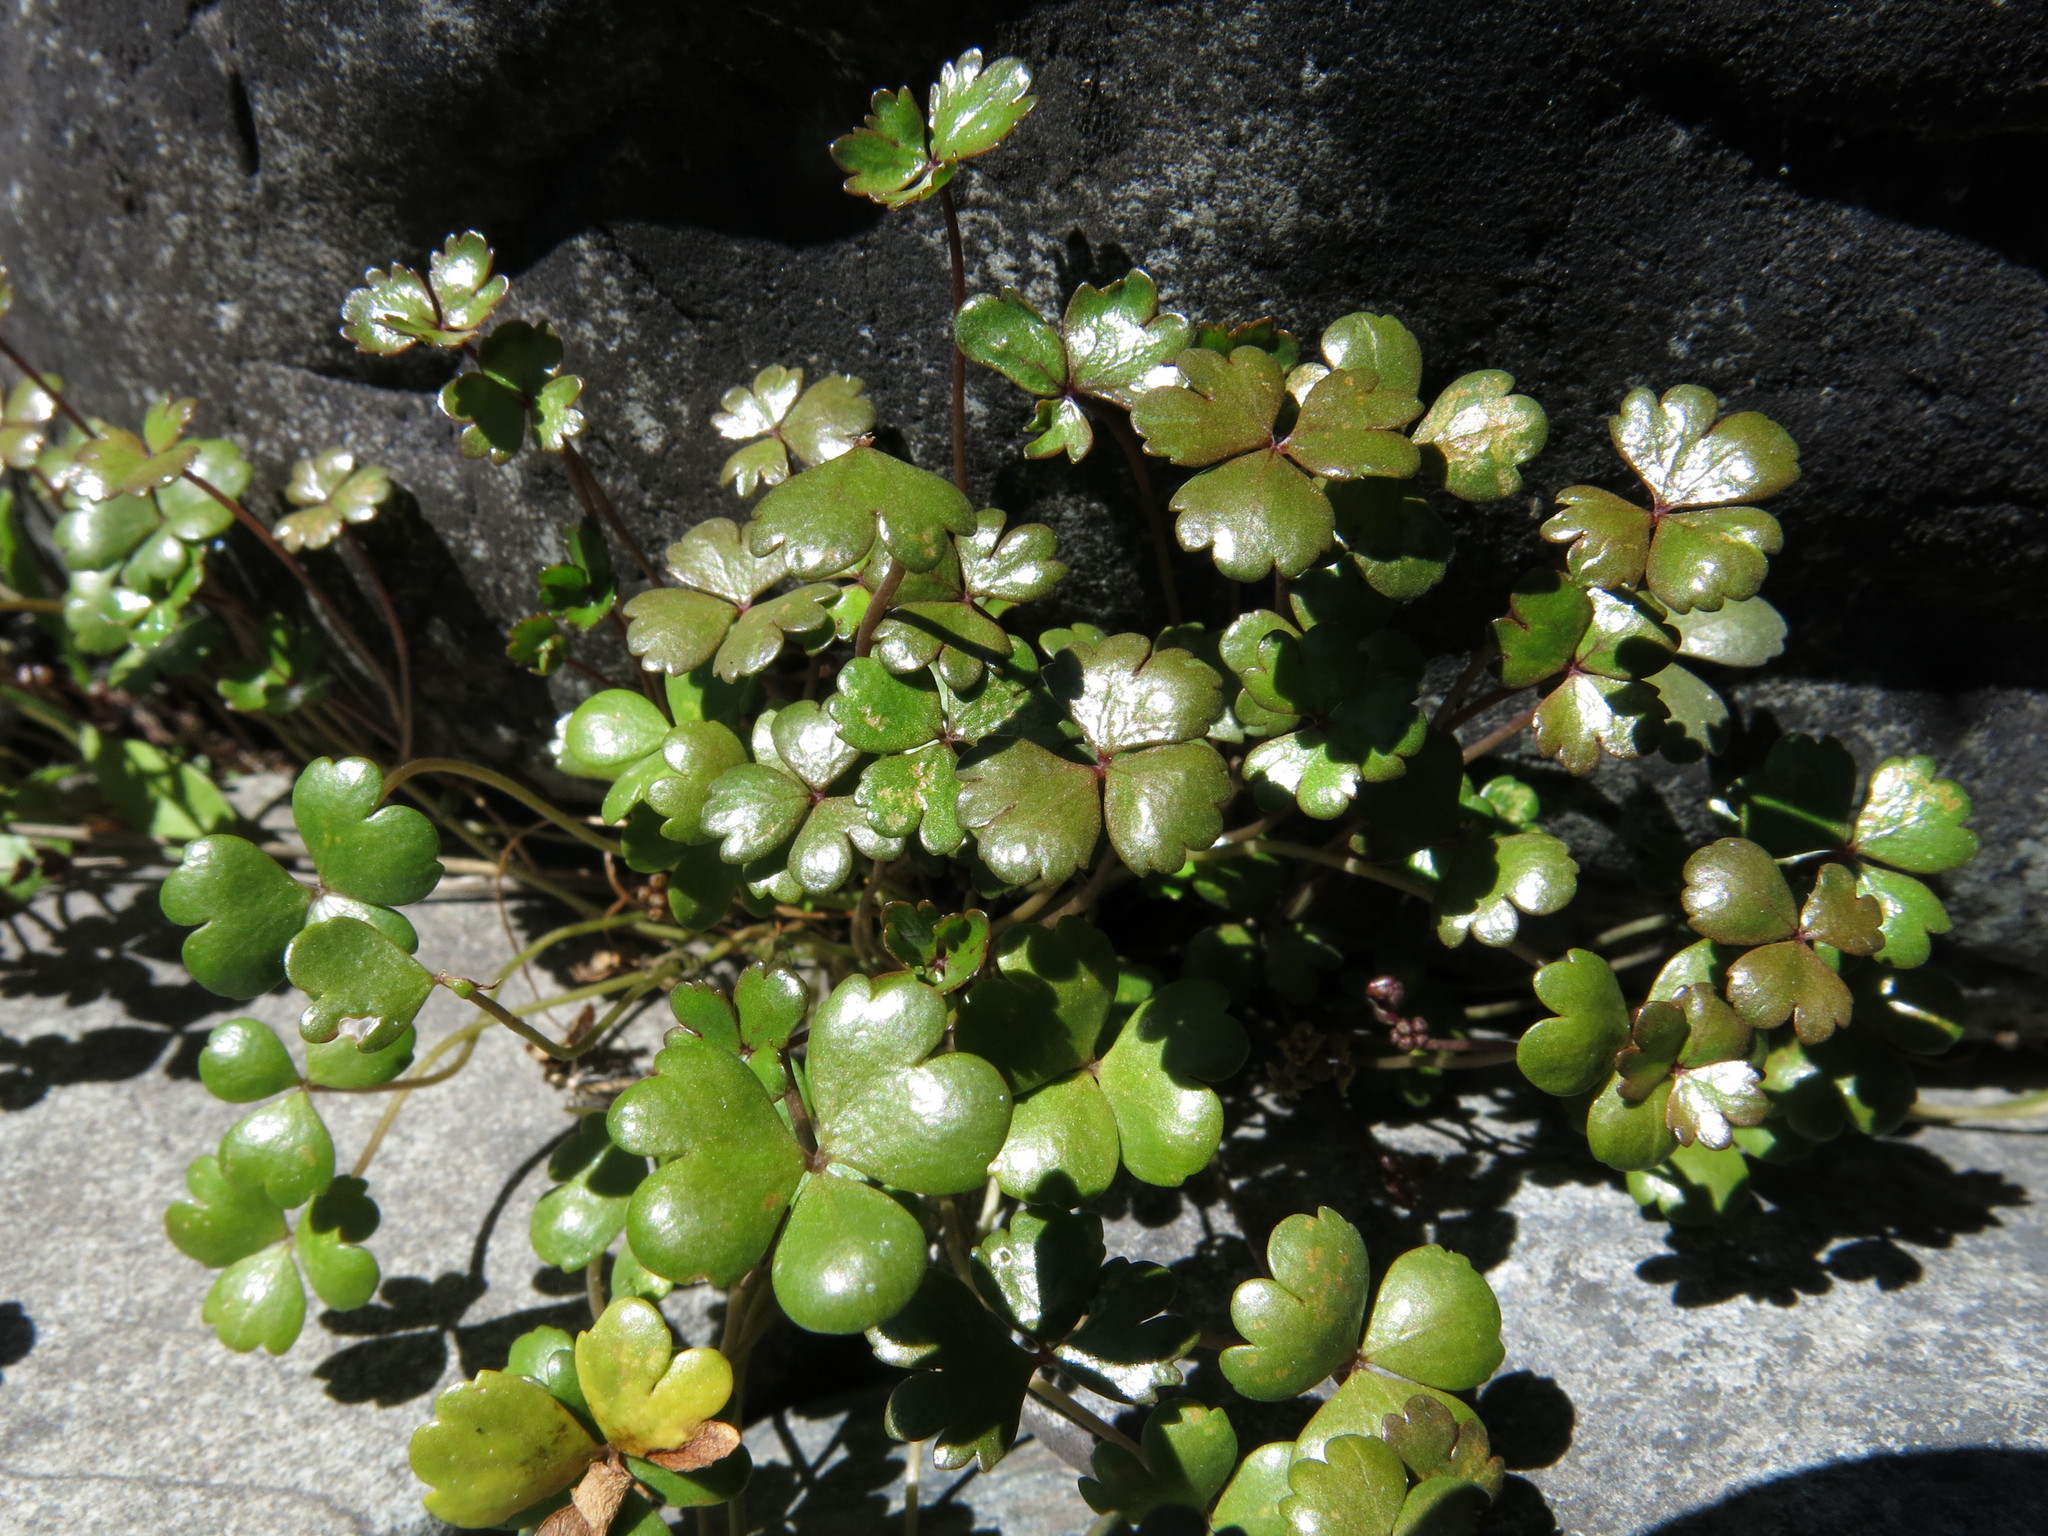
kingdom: Plantae
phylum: Tracheophyta
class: Magnoliopsida
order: Apiales
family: Araliaceae
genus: Hydrocotyle
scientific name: Hydrocotyle sulcata
